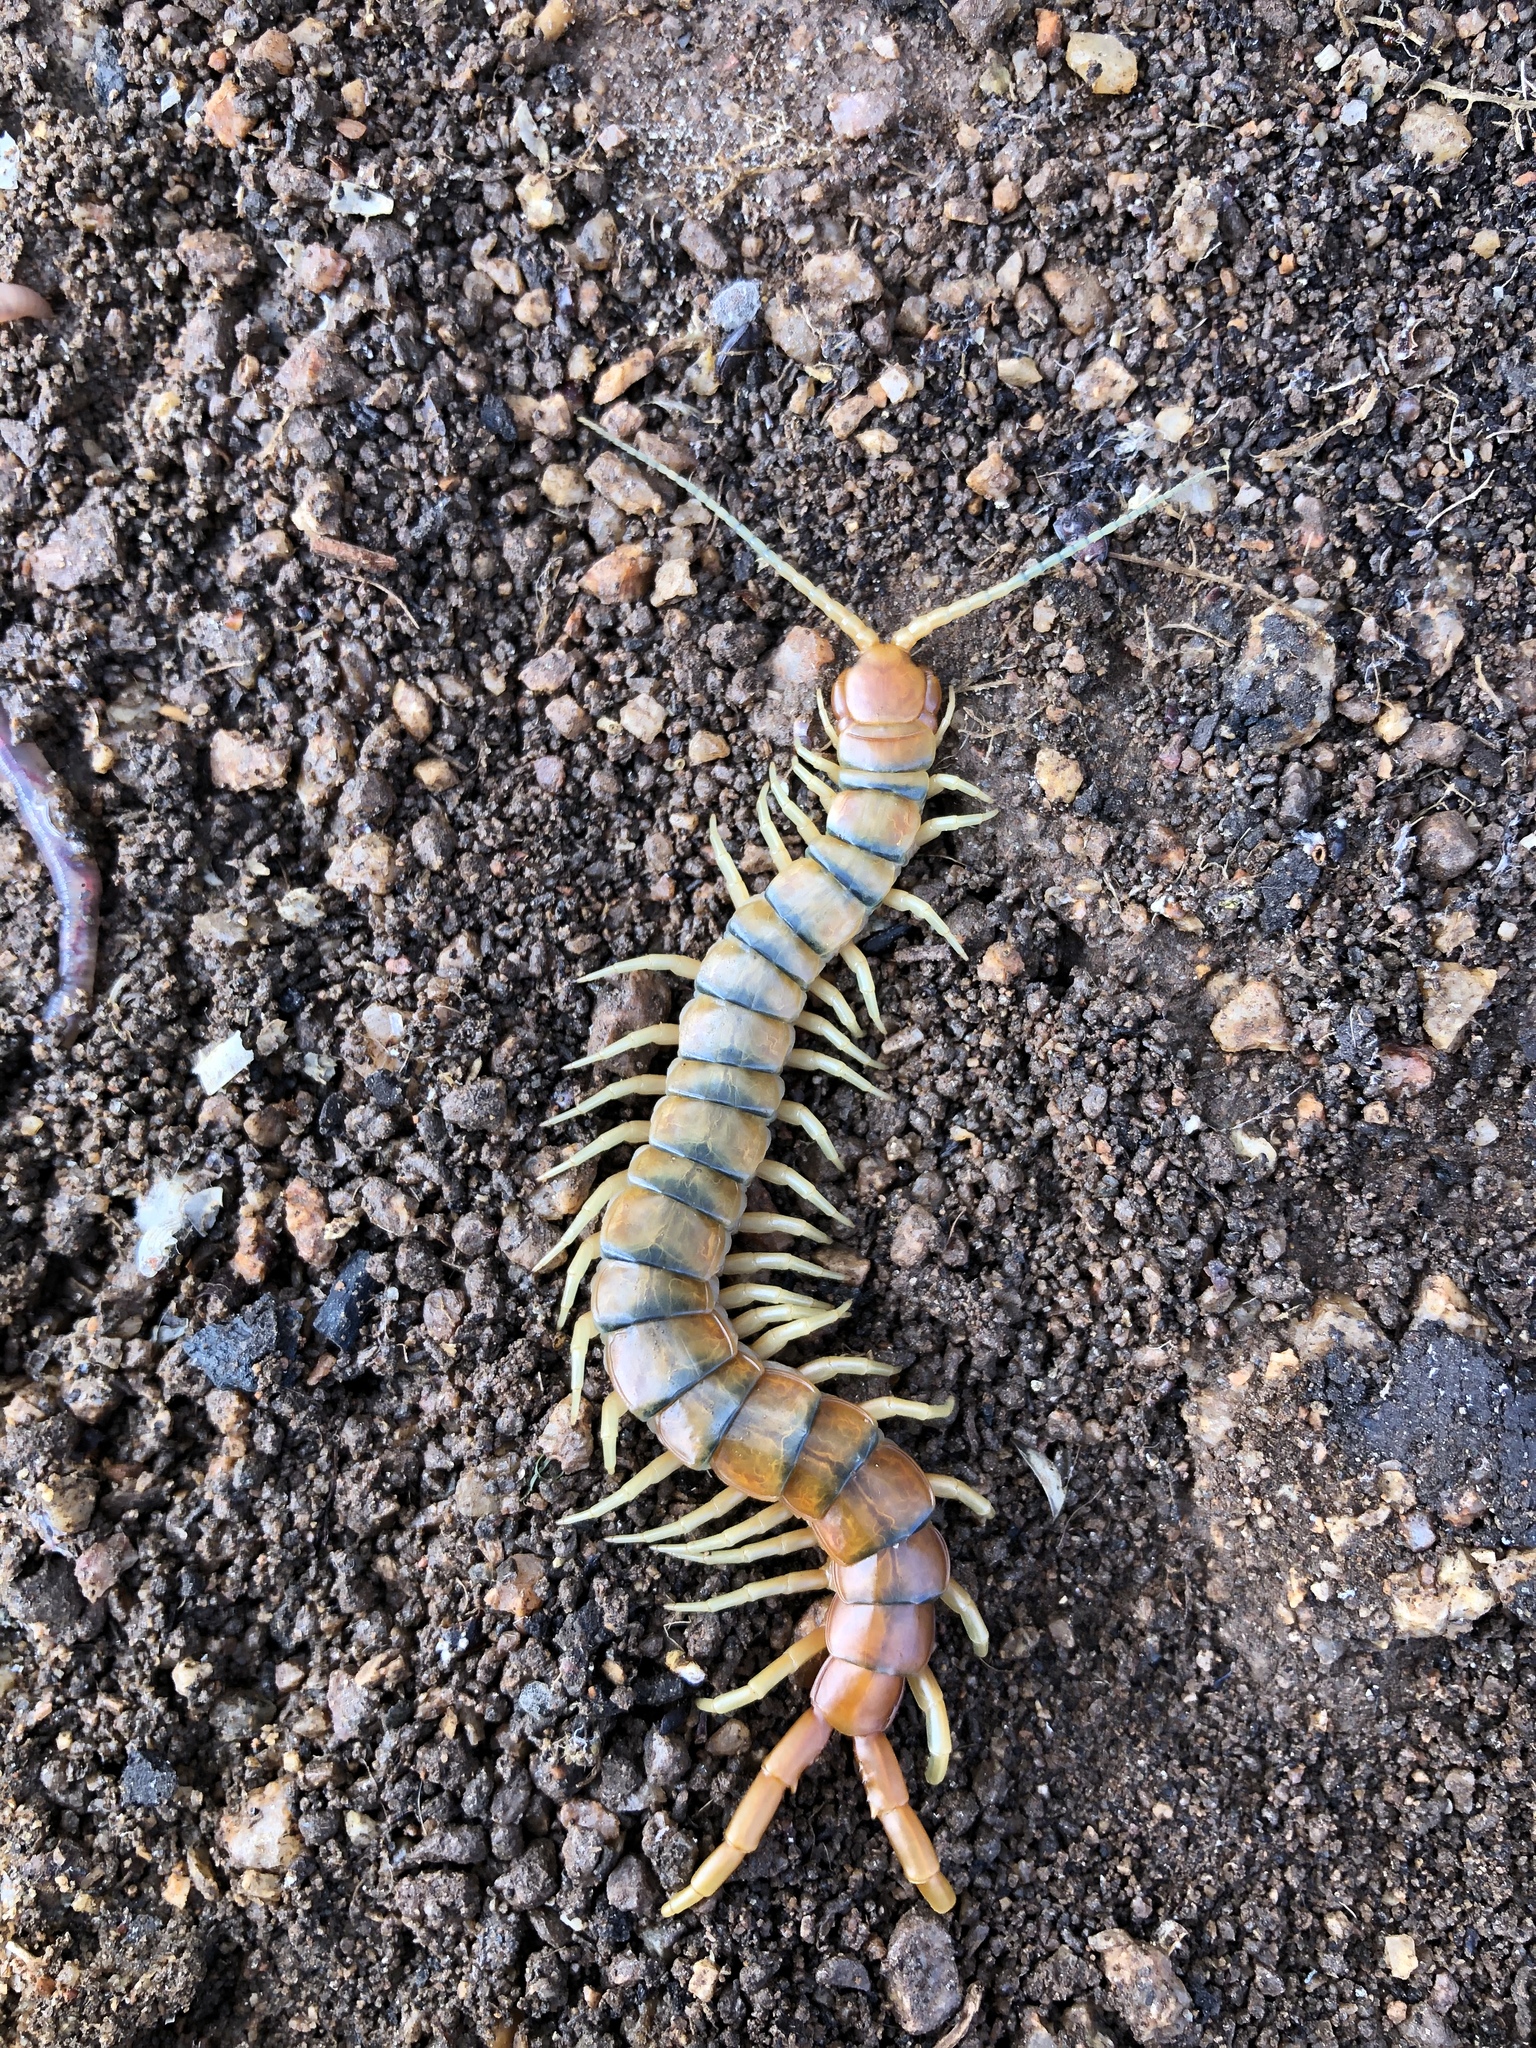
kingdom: Animalia
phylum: Arthropoda
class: Chilopoda
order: Scolopendromorpha
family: Scolopendridae
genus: Scolopendra
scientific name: Scolopendra polymorpha
